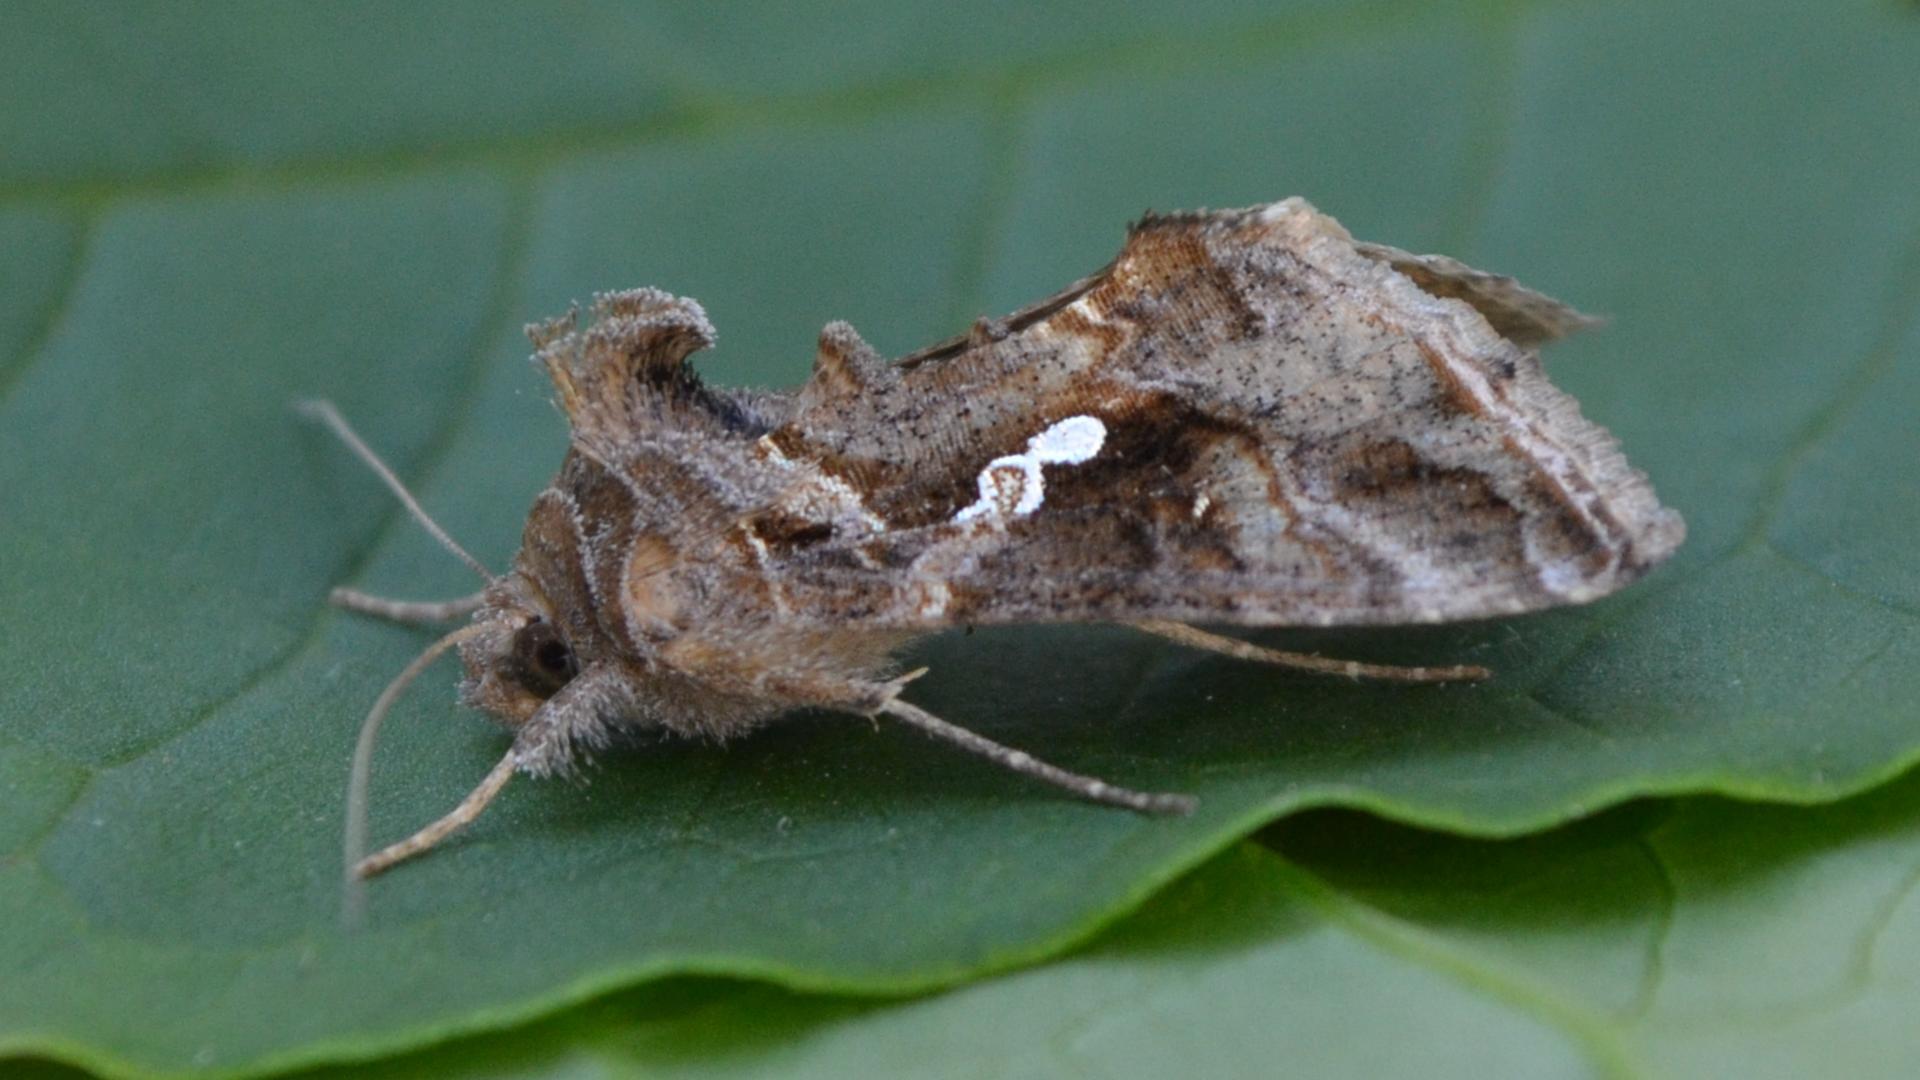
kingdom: Animalia
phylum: Arthropoda
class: Insecta
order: Lepidoptera
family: Noctuidae
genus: Chrysodeixis
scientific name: Chrysodeixis includens
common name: Cutworm moth
